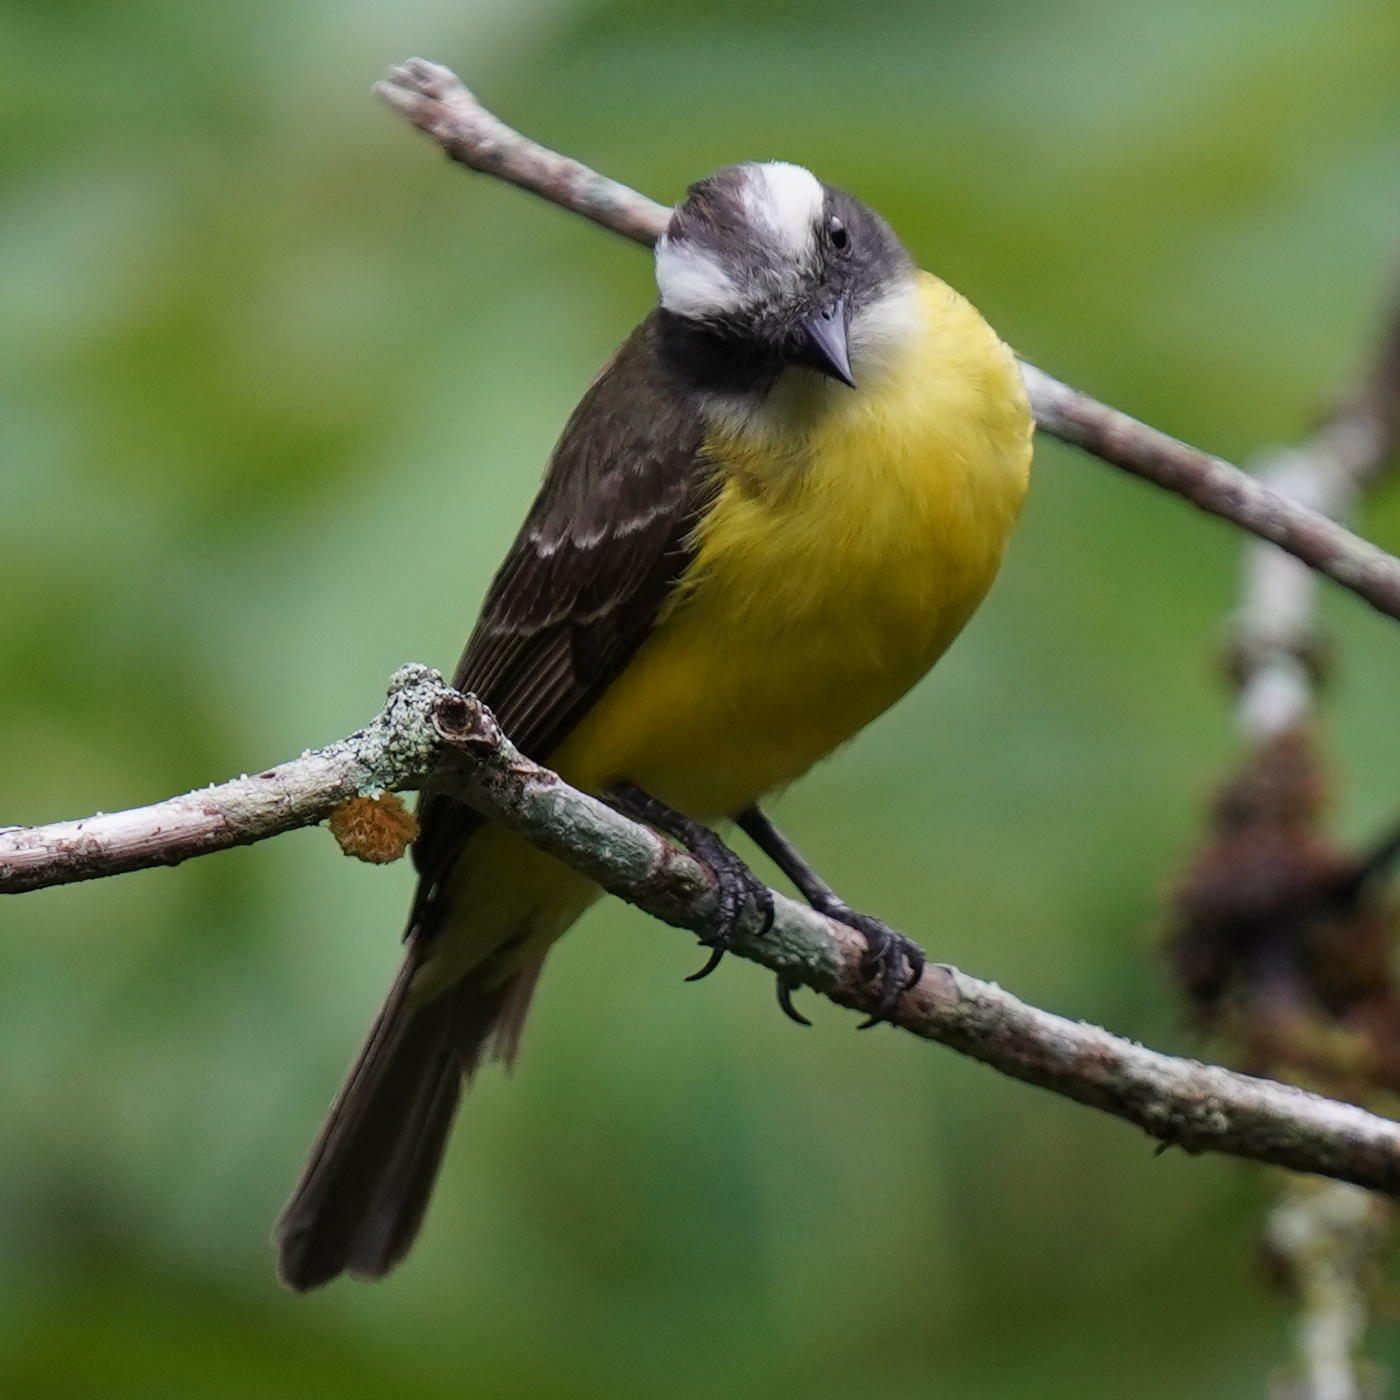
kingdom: Animalia
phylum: Chordata
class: Aves
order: Passeriformes
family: Tyrannidae
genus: Myiozetetes
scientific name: Myiozetetes similis
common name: Social flycatcher
